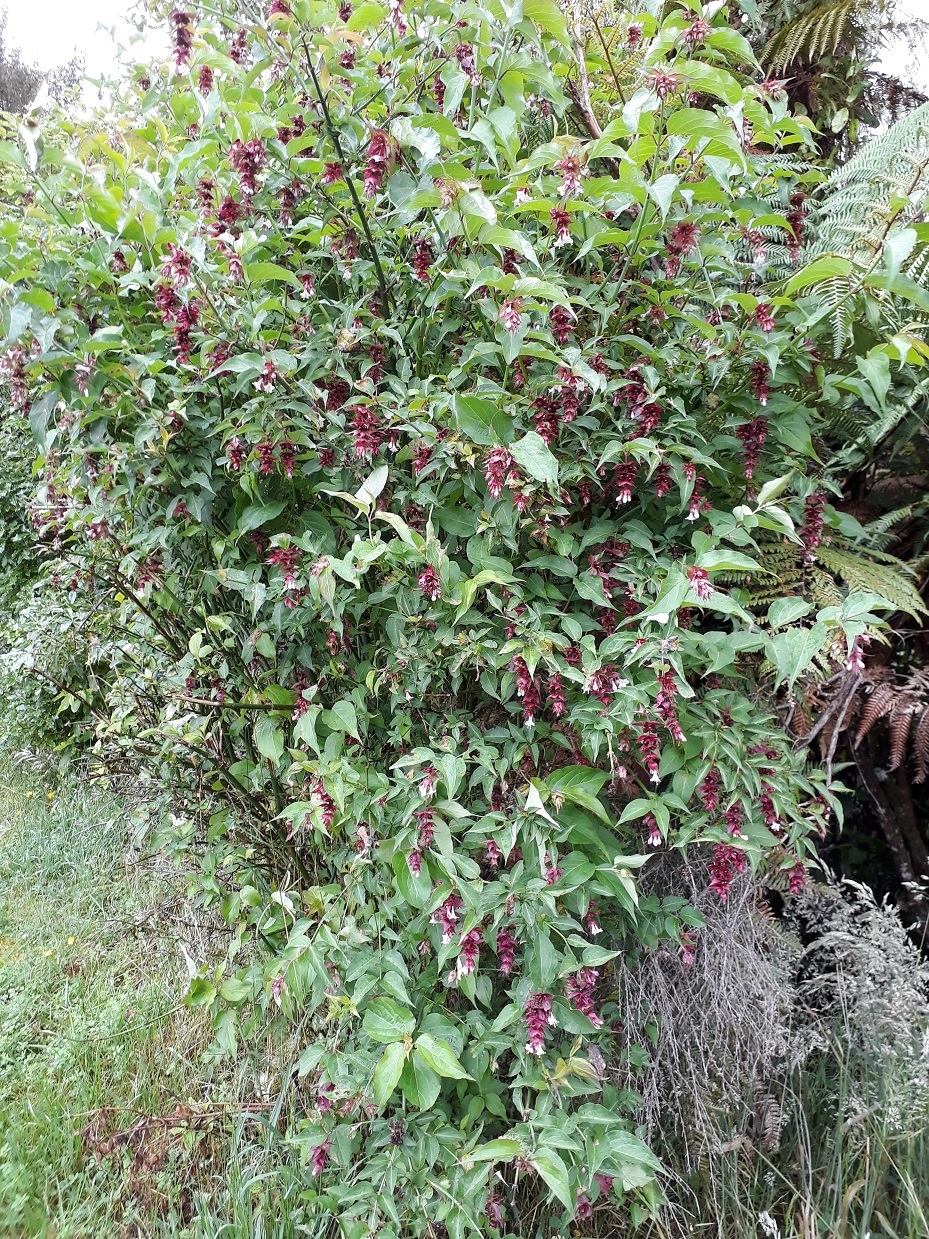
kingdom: Plantae
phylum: Tracheophyta
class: Magnoliopsida
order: Dipsacales
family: Caprifoliaceae
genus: Leycesteria
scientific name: Leycesteria formosa
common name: Himalayan honeysuckle
